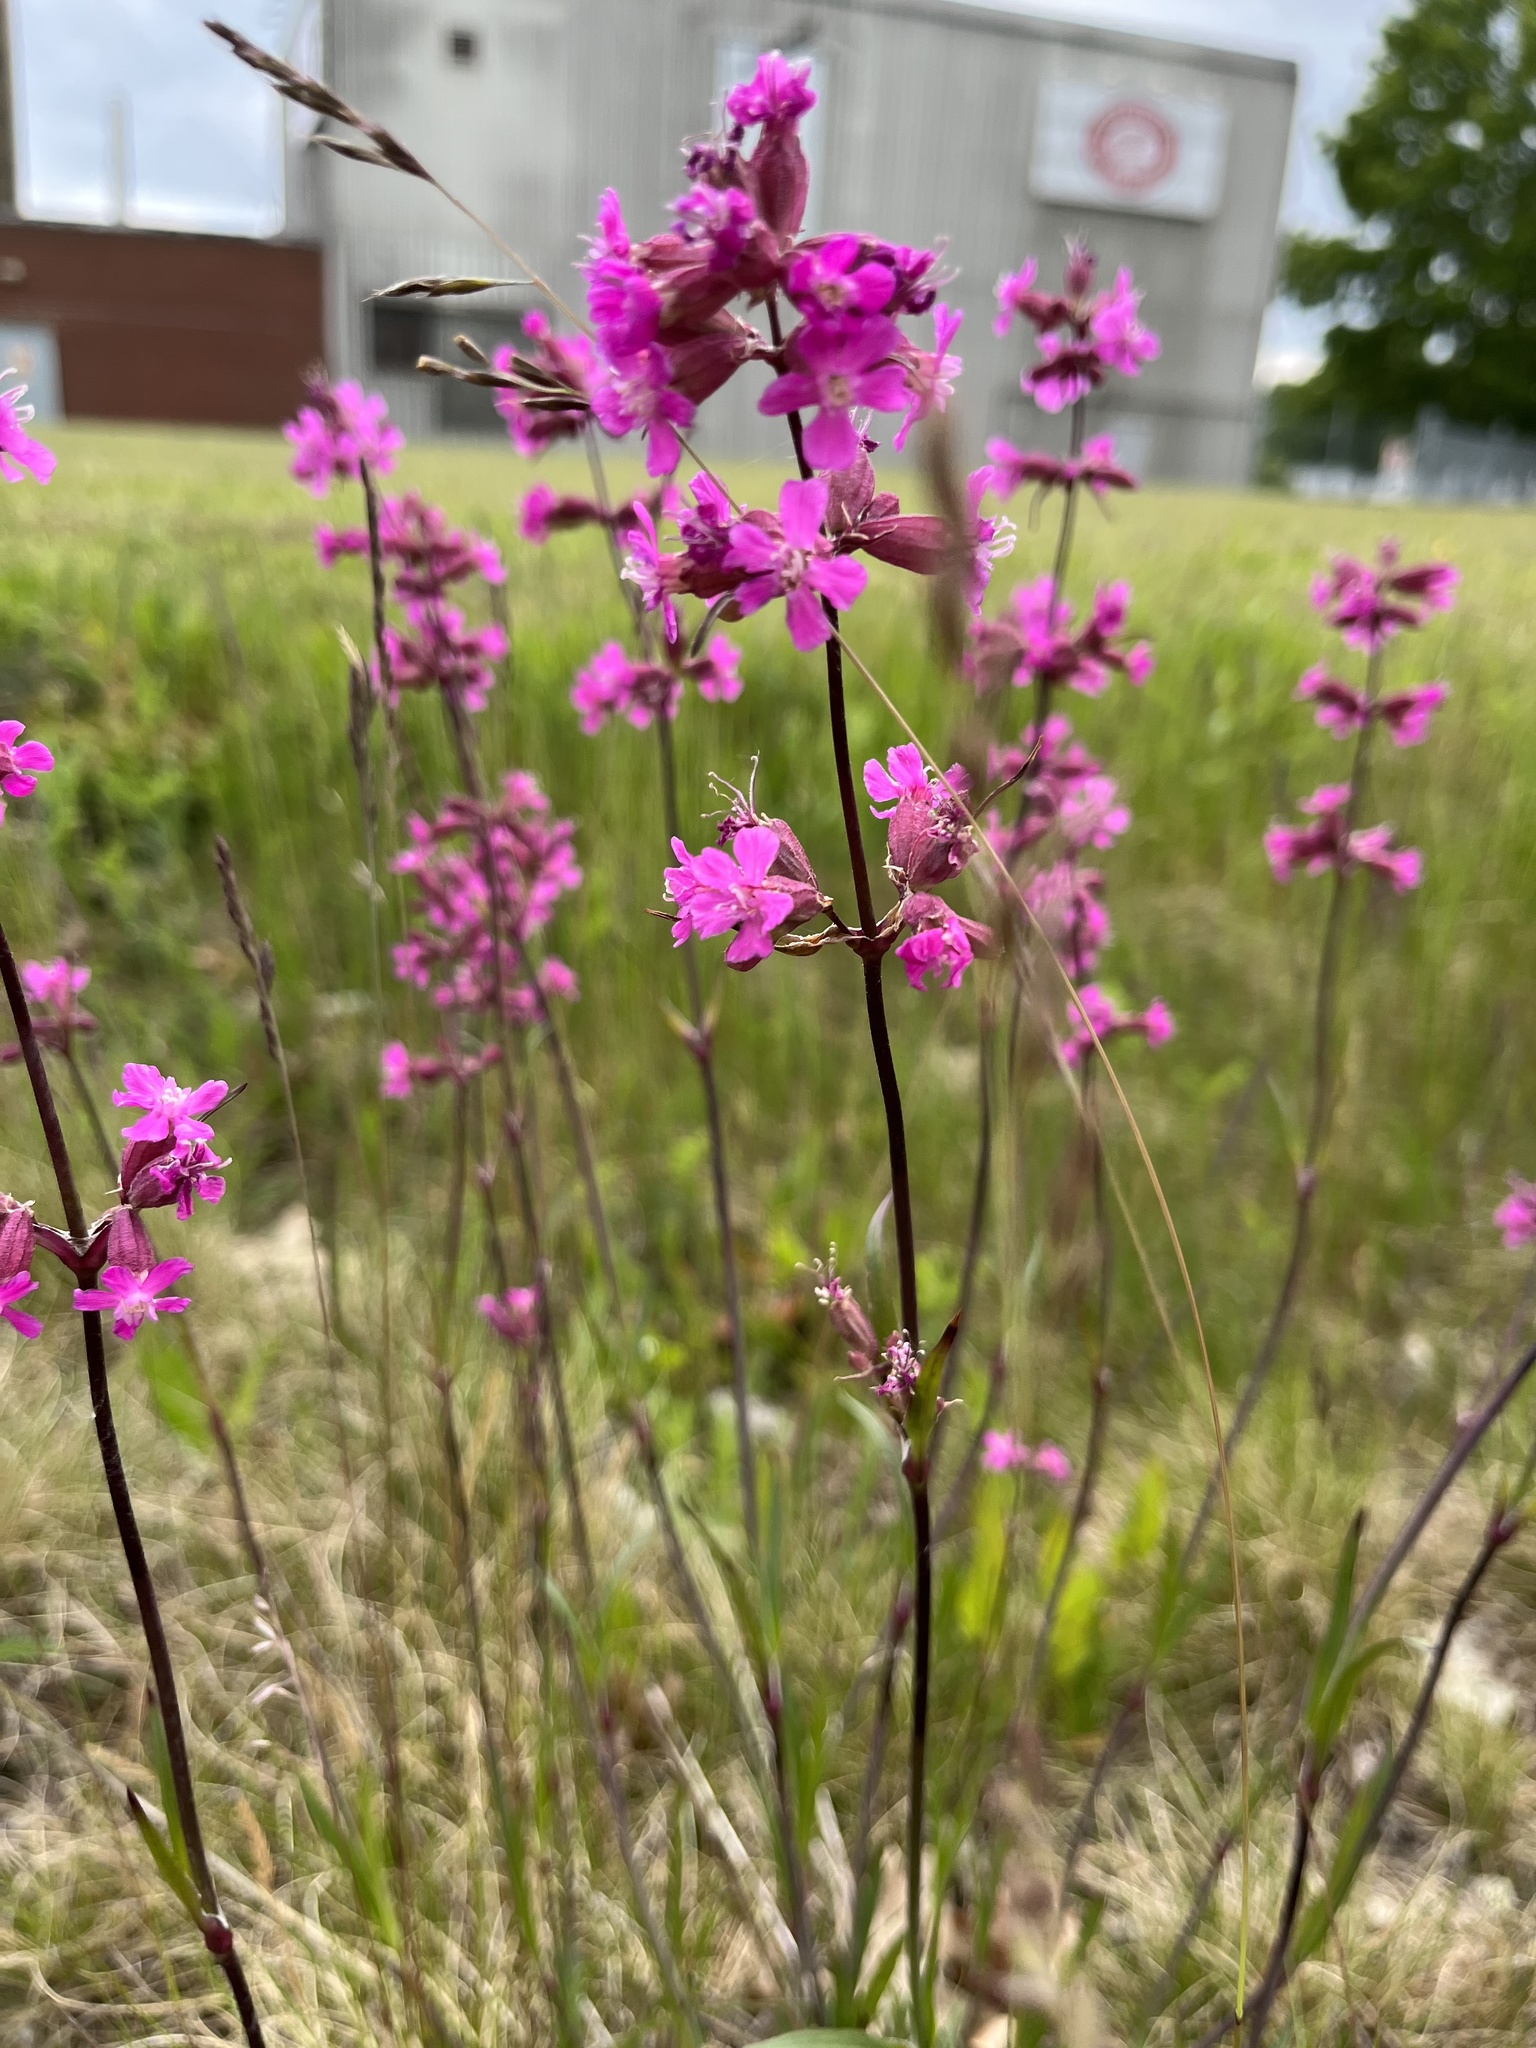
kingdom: Plantae
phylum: Tracheophyta
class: Magnoliopsida
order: Caryophyllales
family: Caryophyllaceae
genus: Viscaria
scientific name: Viscaria vulgaris
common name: Clammy campion
